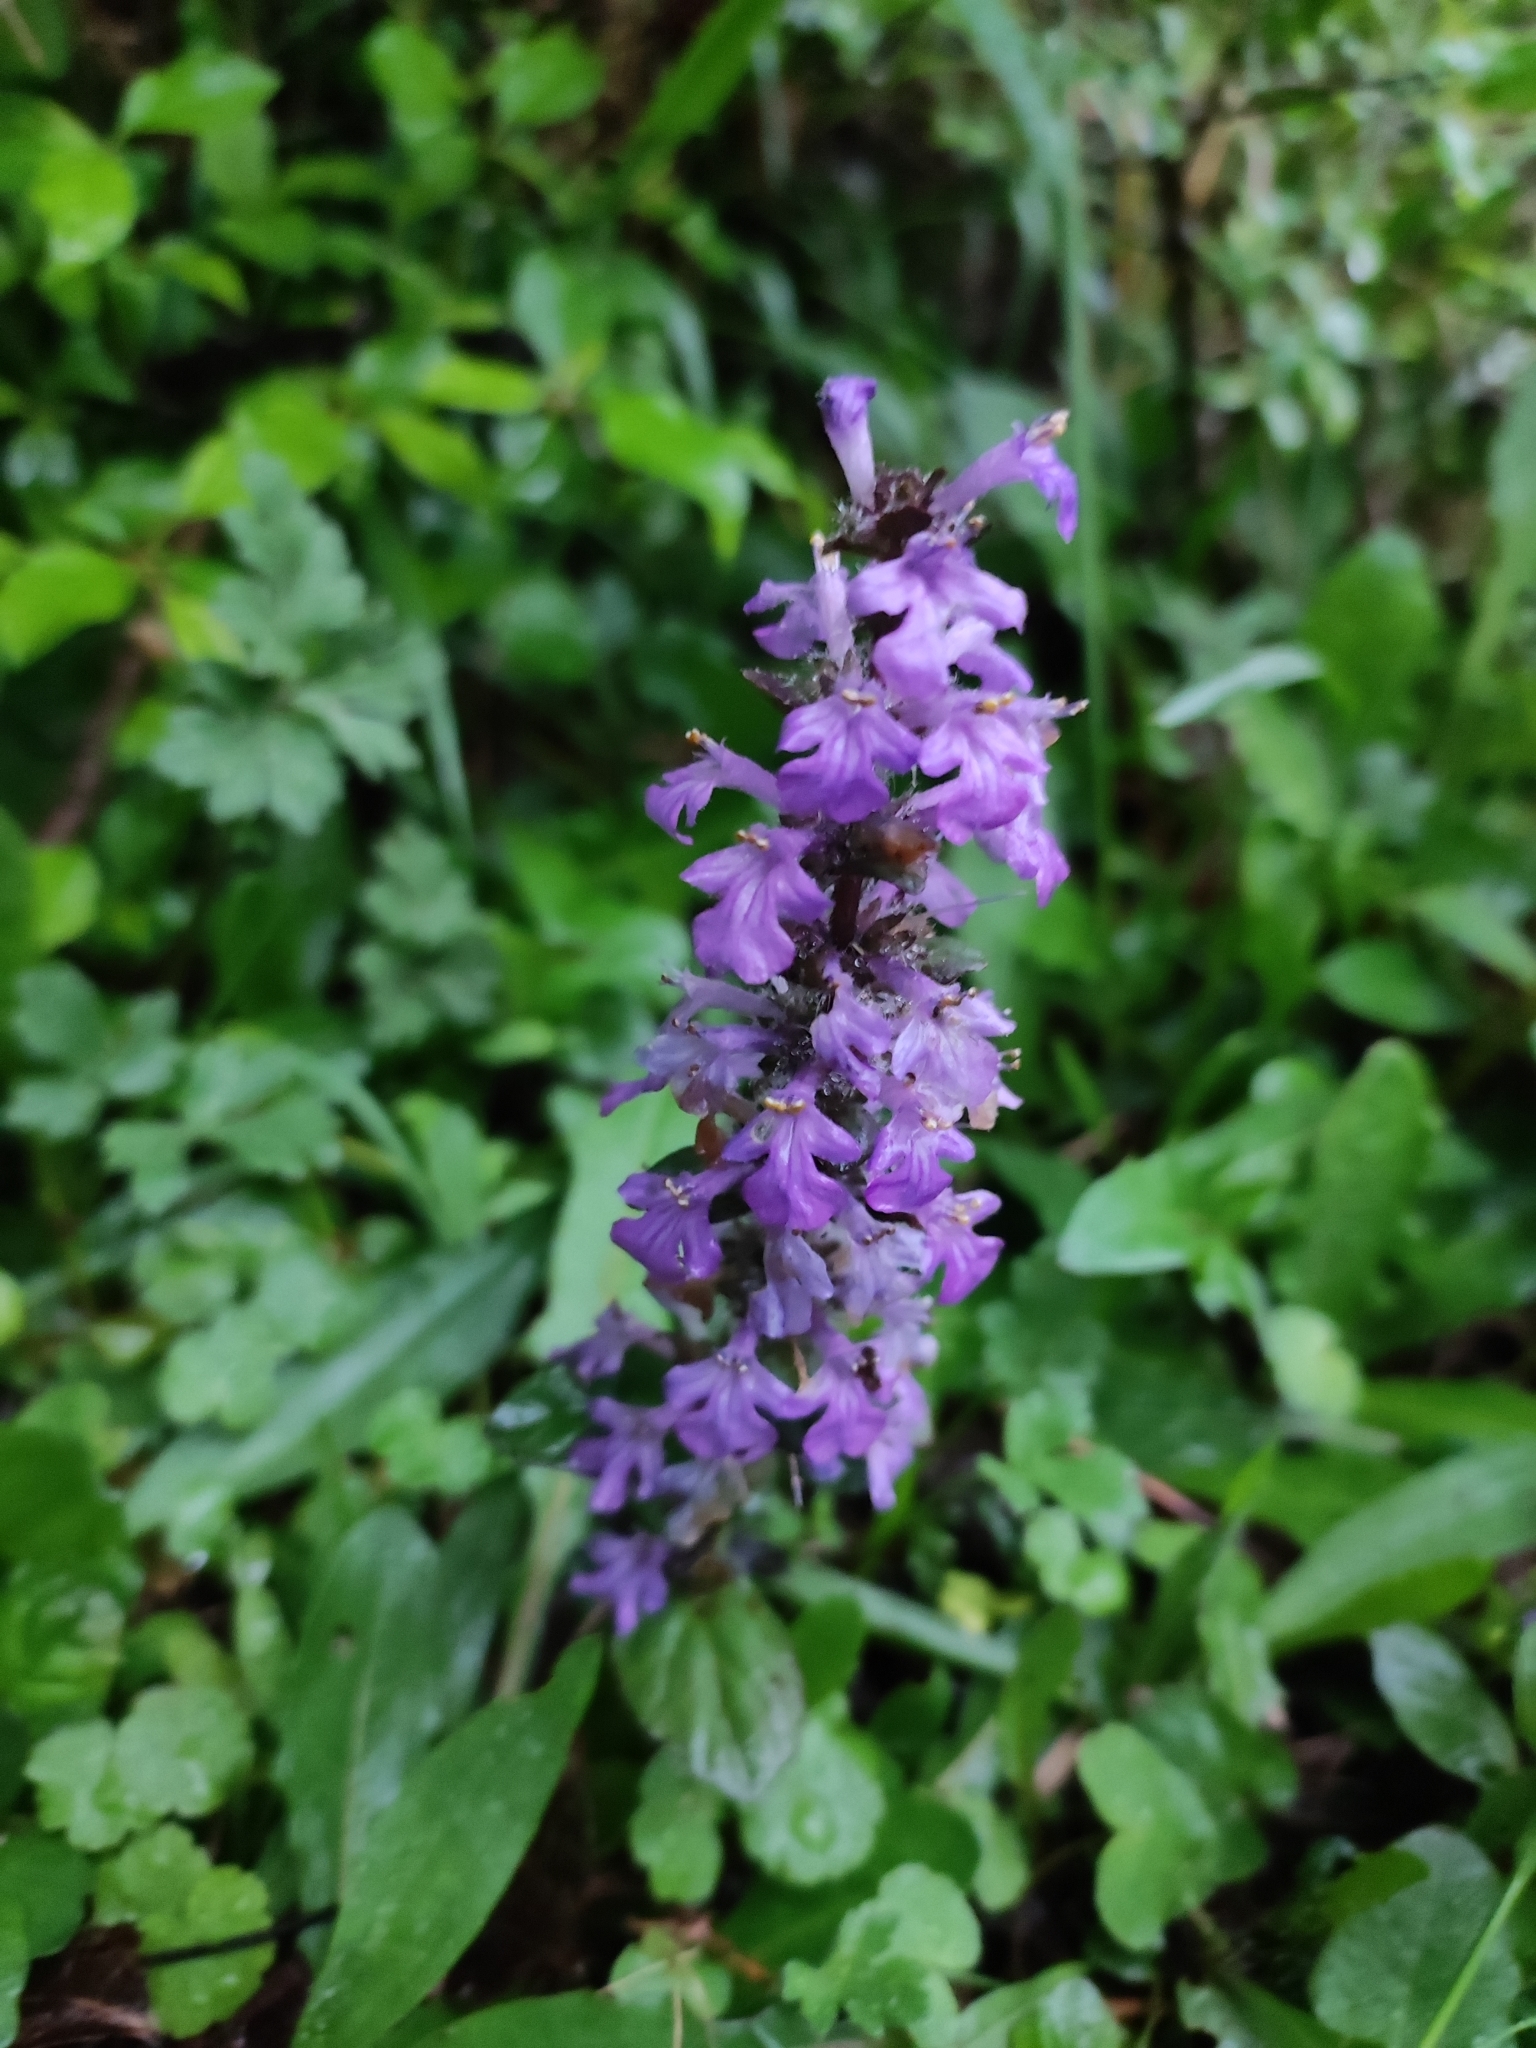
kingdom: Plantae
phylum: Tracheophyta
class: Magnoliopsida
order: Lamiales
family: Lamiaceae
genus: Ajuga
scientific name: Ajuga reptans
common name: Bugle
